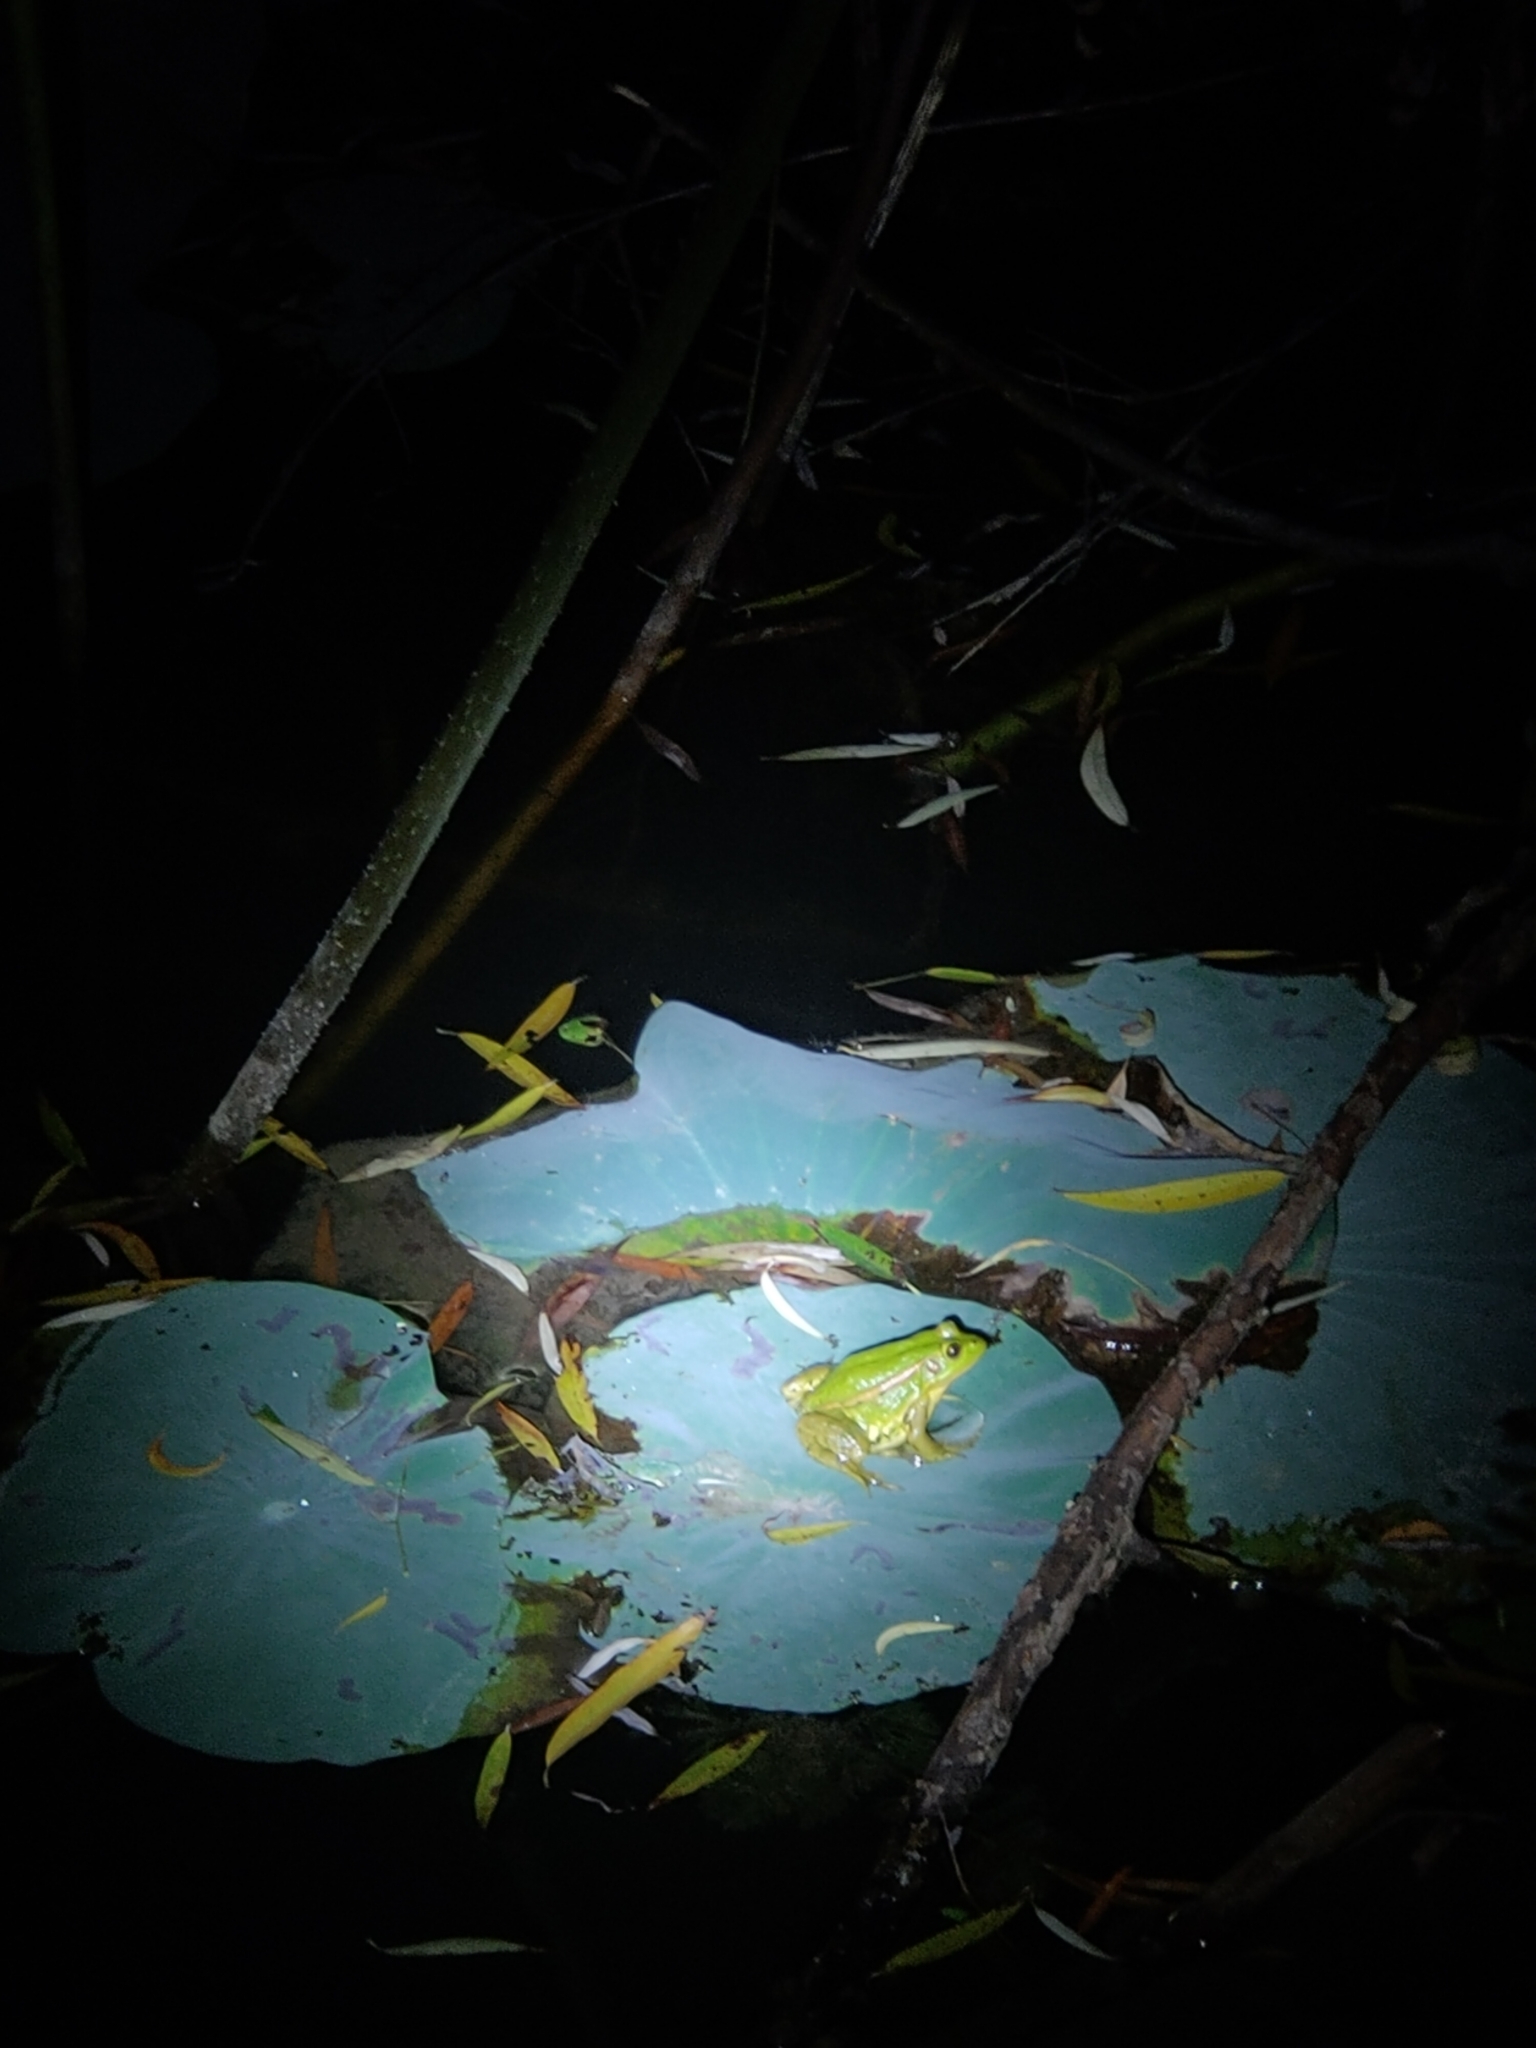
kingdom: Animalia
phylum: Chordata
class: Amphibia
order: Anura
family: Ranidae
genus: Pelophylax
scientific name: Pelophylax plancyi
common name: Beijing gold-striped pond frog
